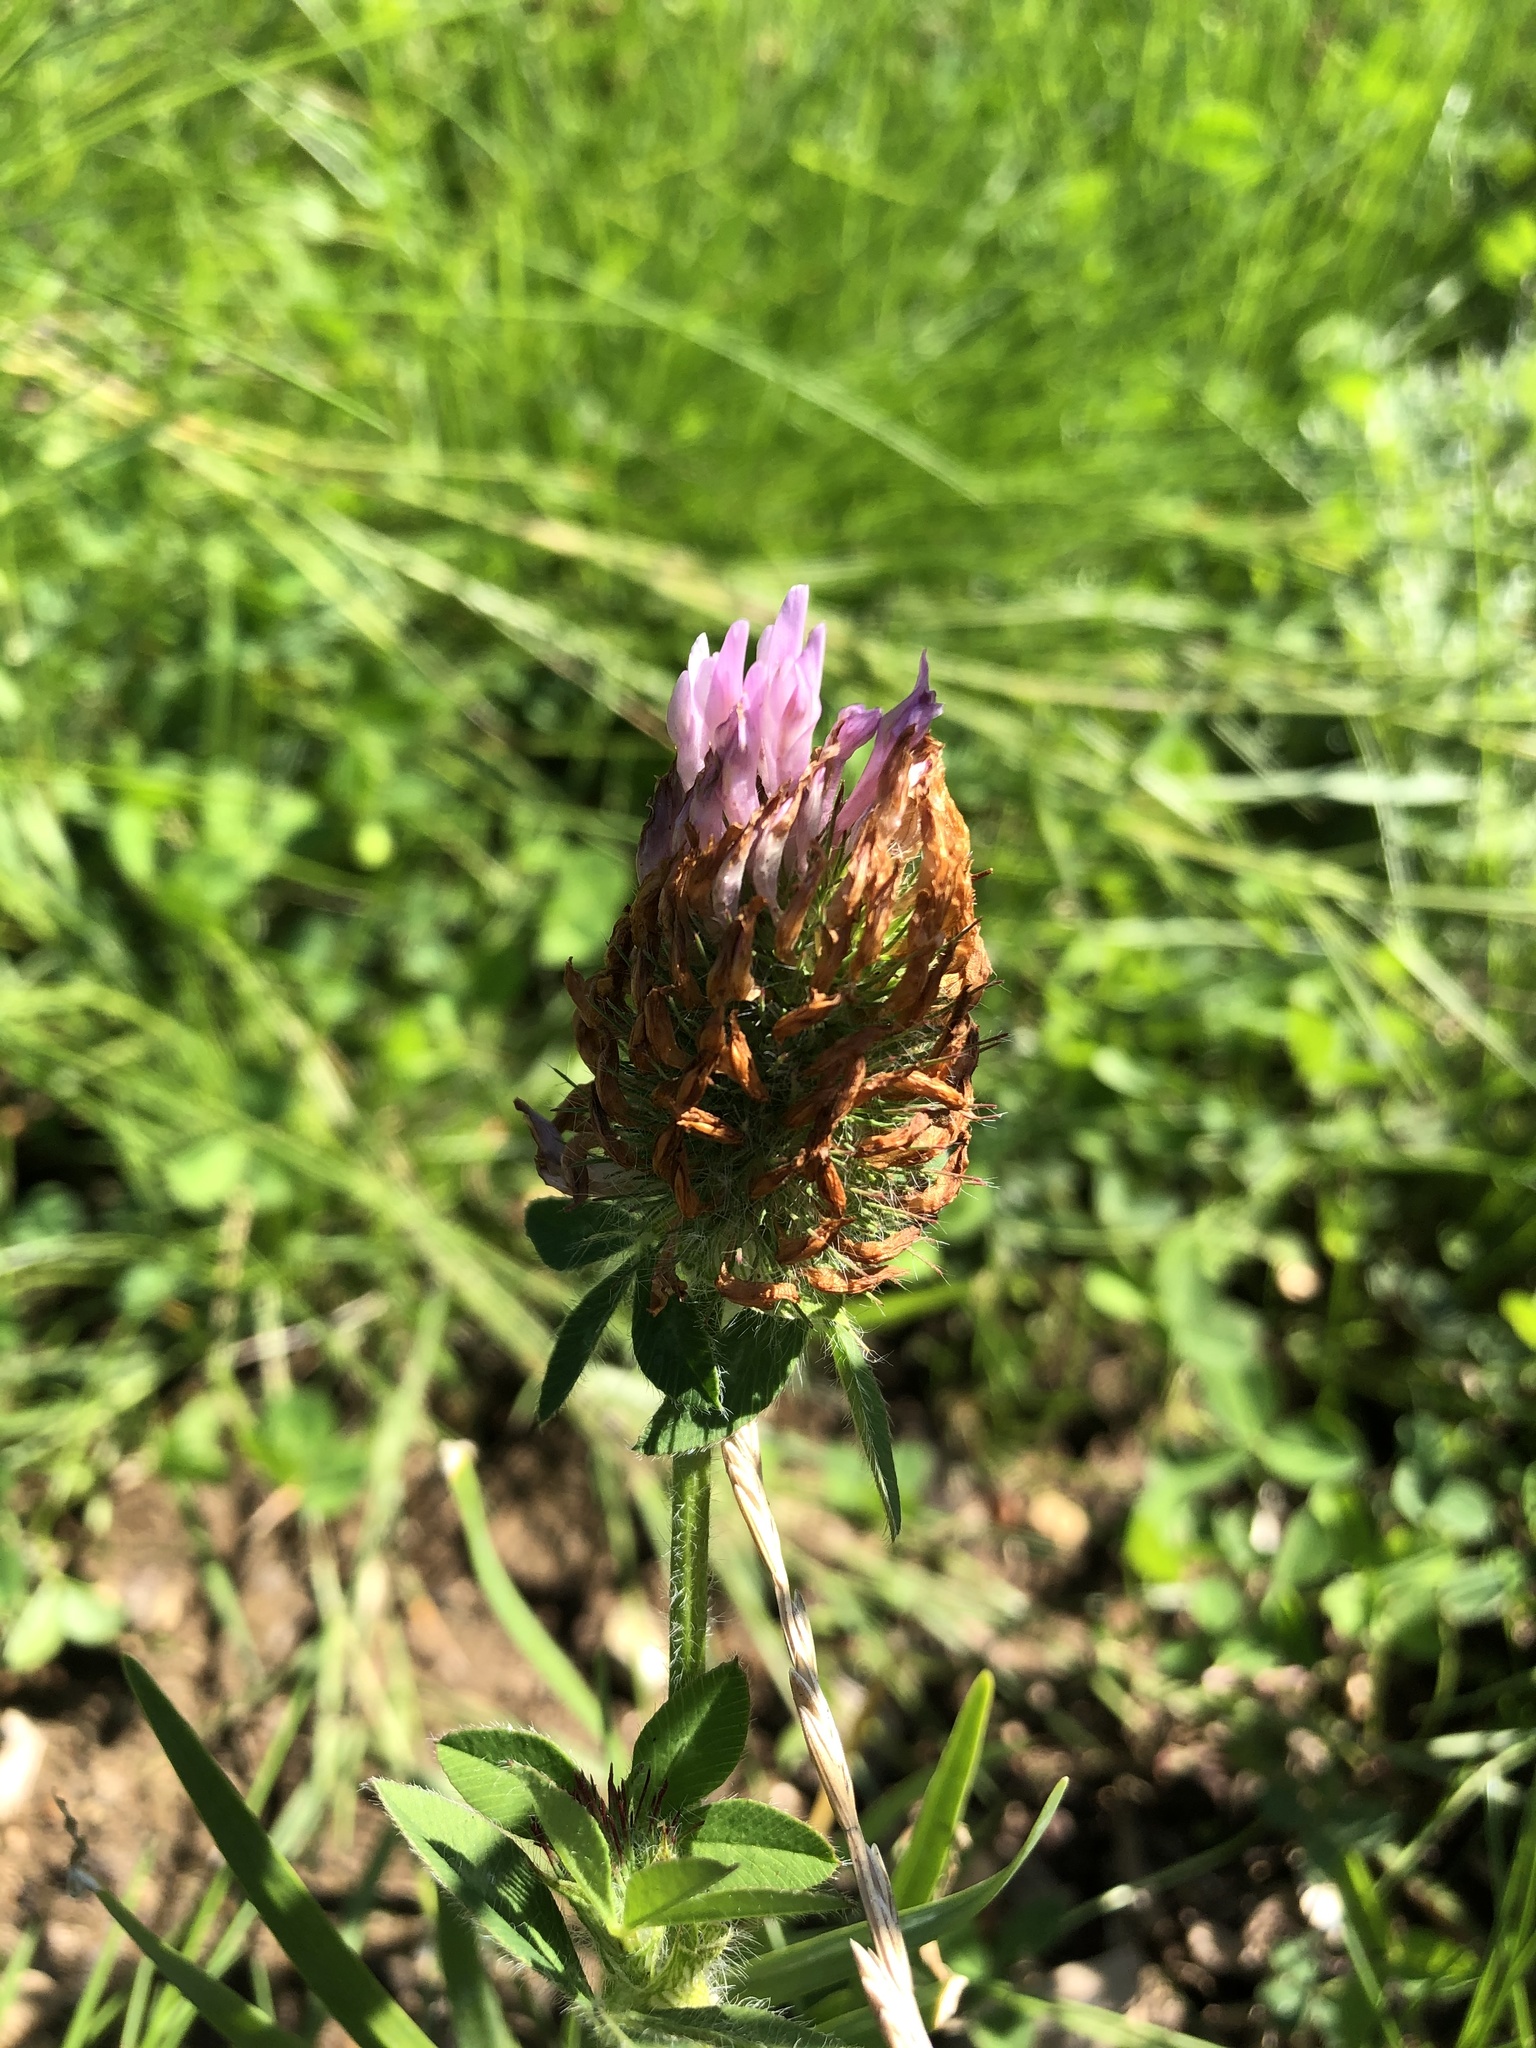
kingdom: Plantae
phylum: Tracheophyta
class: Magnoliopsida
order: Fabales
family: Fabaceae
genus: Trifolium
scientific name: Trifolium pratense
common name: Red clover
